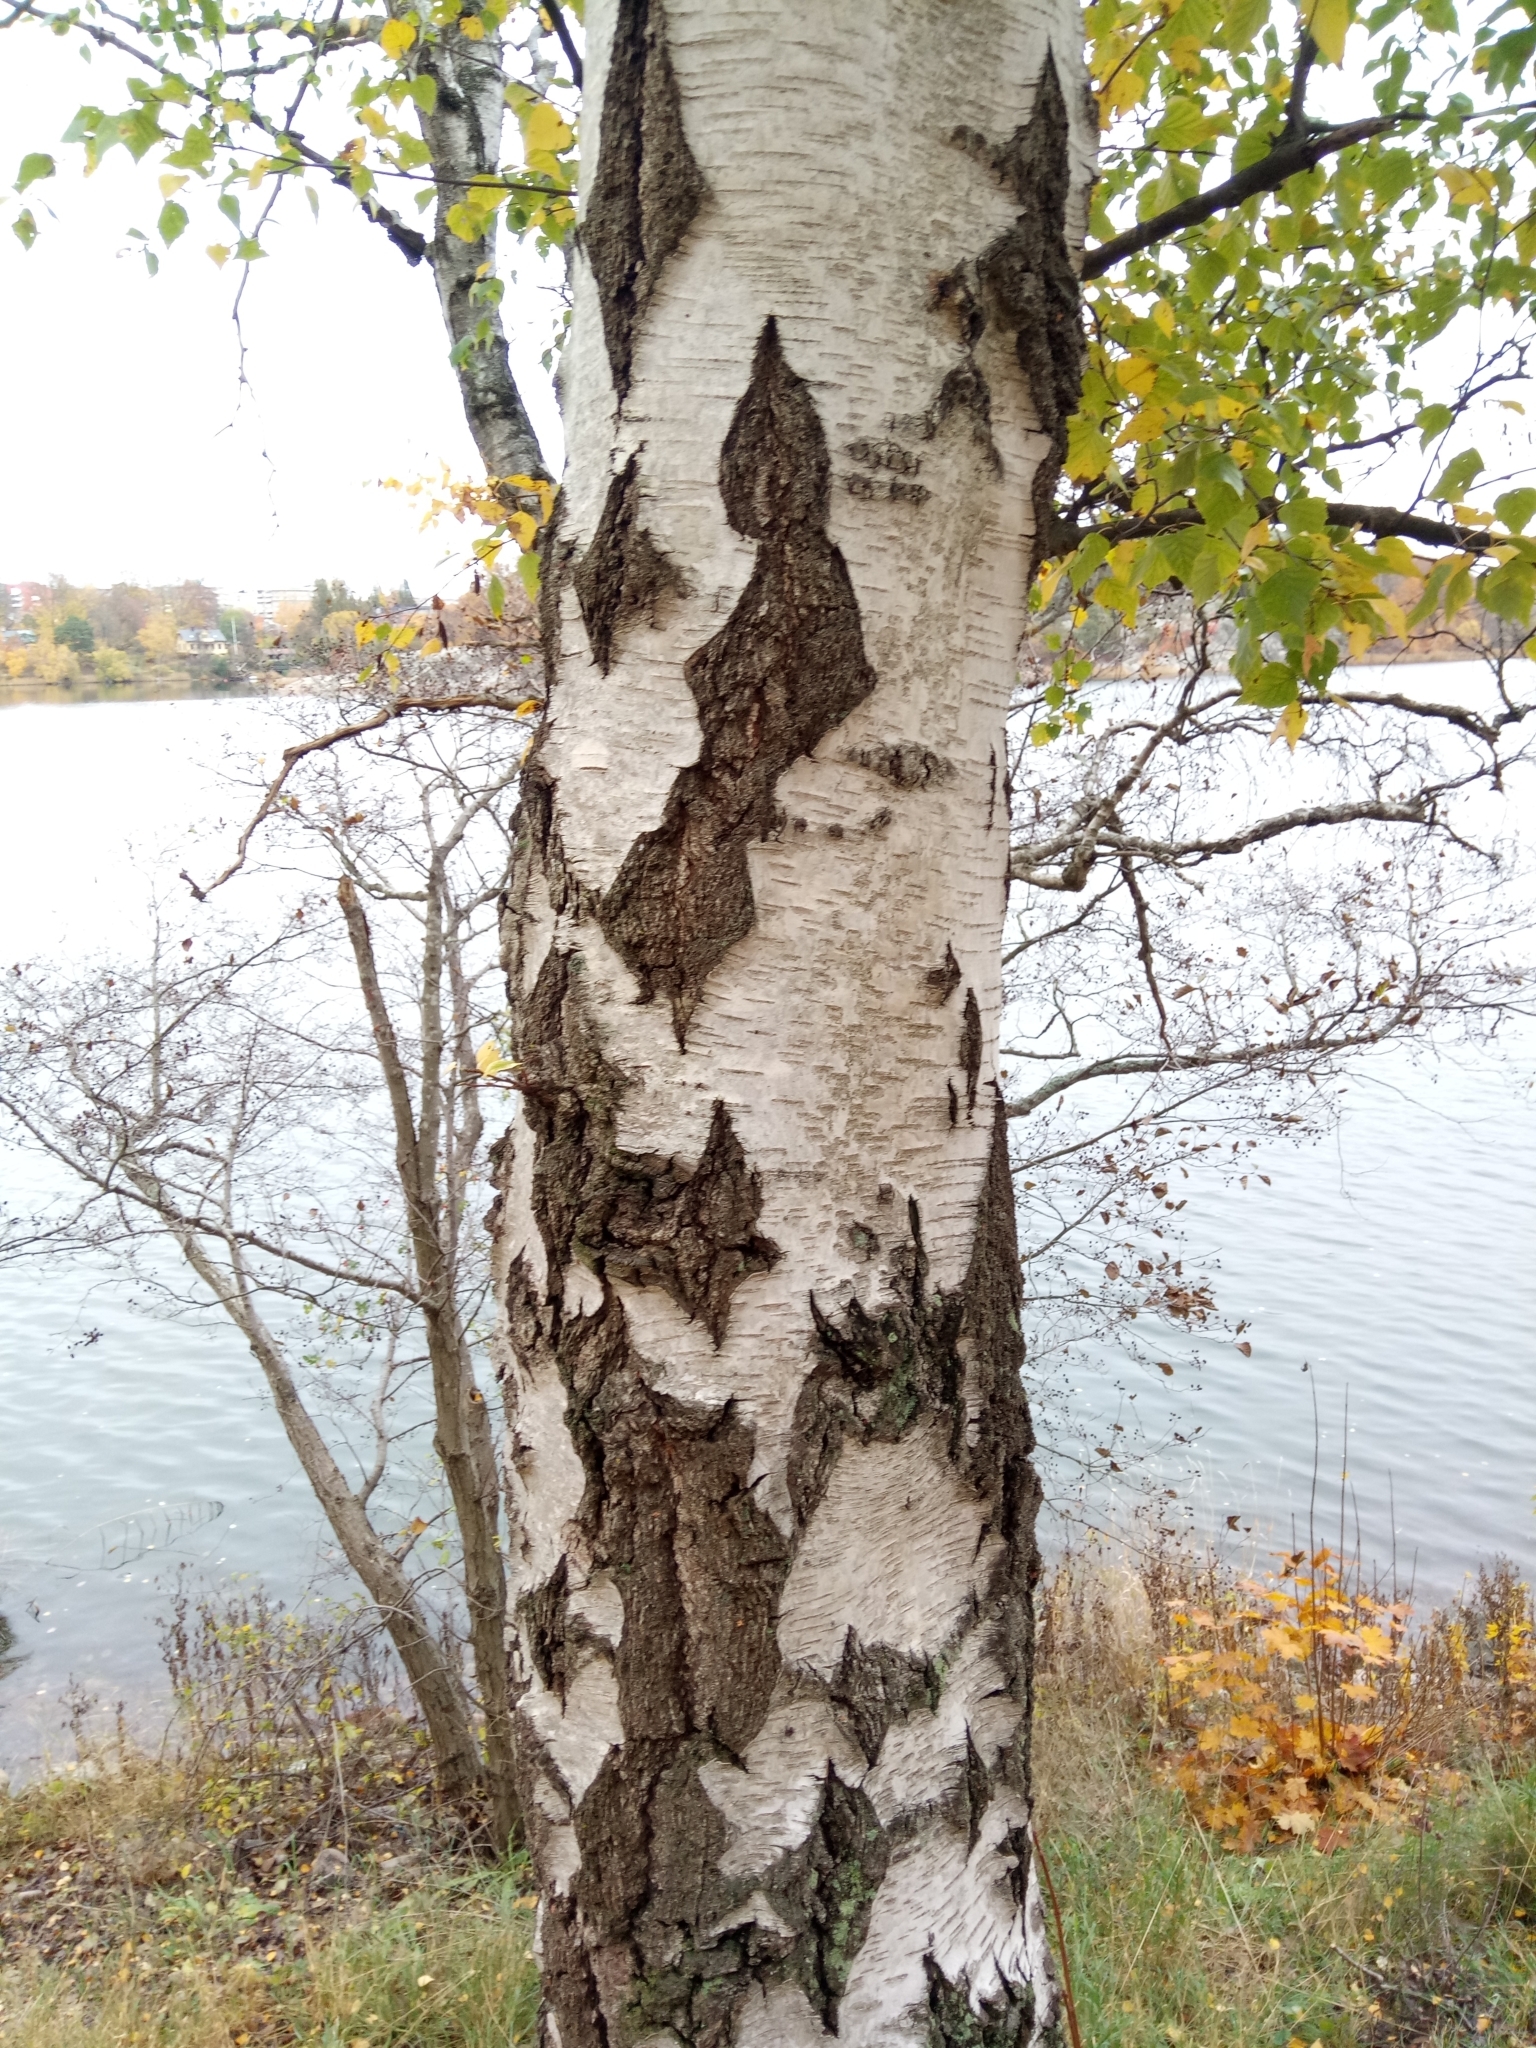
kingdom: Plantae
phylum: Tracheophyta
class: Magnoliopsida
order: Fagales
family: Betulaceae
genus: Betula
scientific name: Betula pendula
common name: Silver birch
